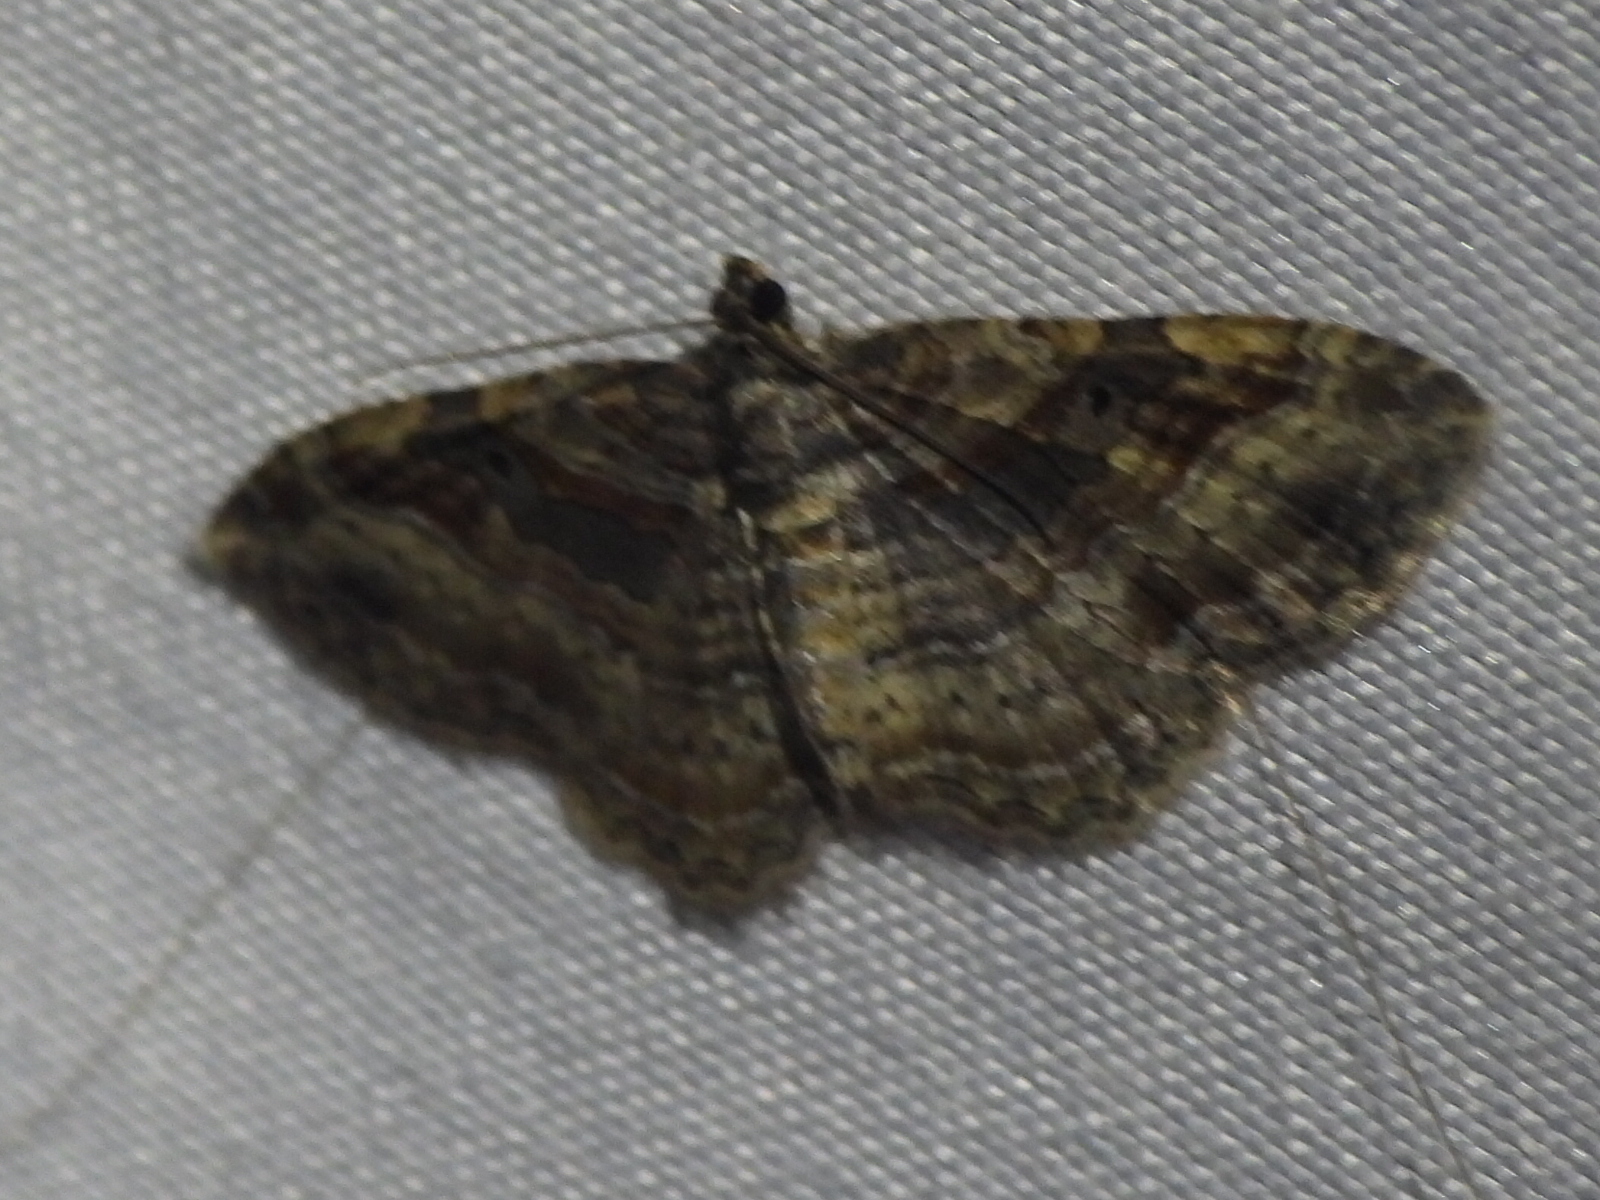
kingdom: Animalia
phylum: Arthropoda
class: Insecta
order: Lepidoptera
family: Geometridae
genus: Costaconvexa
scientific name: Costaconvexa centrostrigaria
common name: Bent-line carpet
